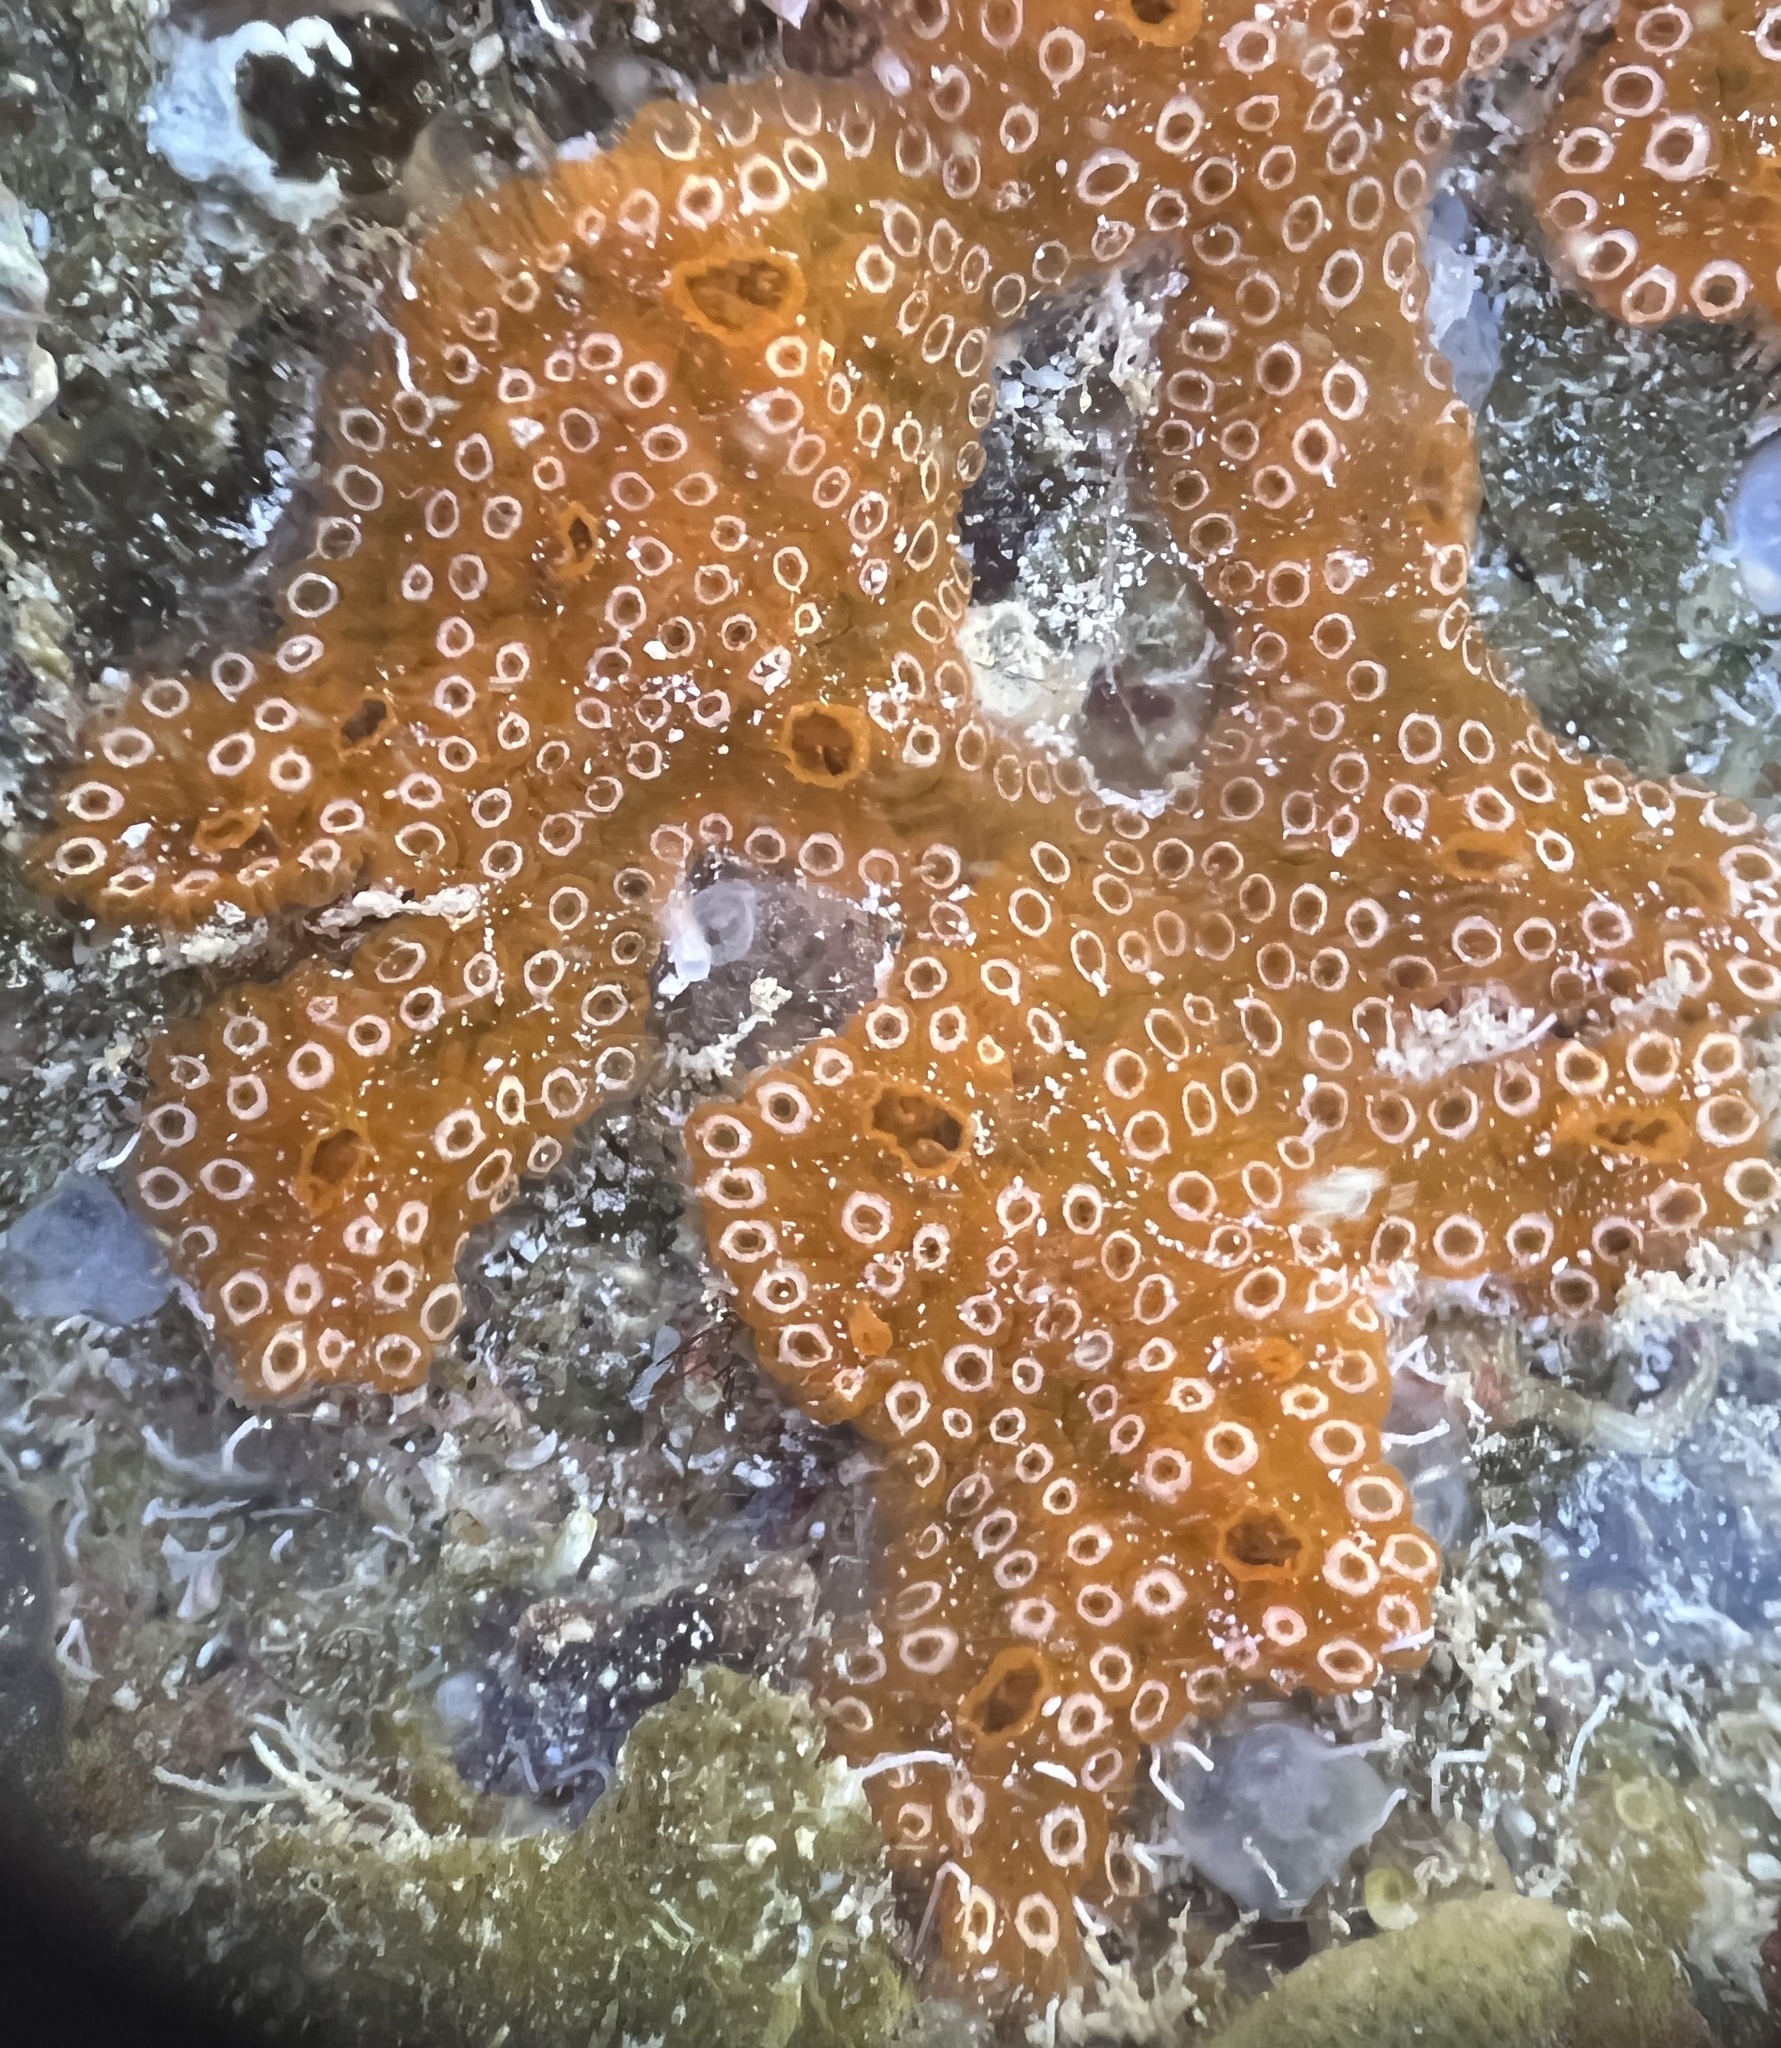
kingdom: Animalia
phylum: Chordata
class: Ascidiacea
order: Aplousobranchia
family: Holozoidae
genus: Distaplia
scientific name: Distaplia bermudensis
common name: Mottled encrusting tunicate
